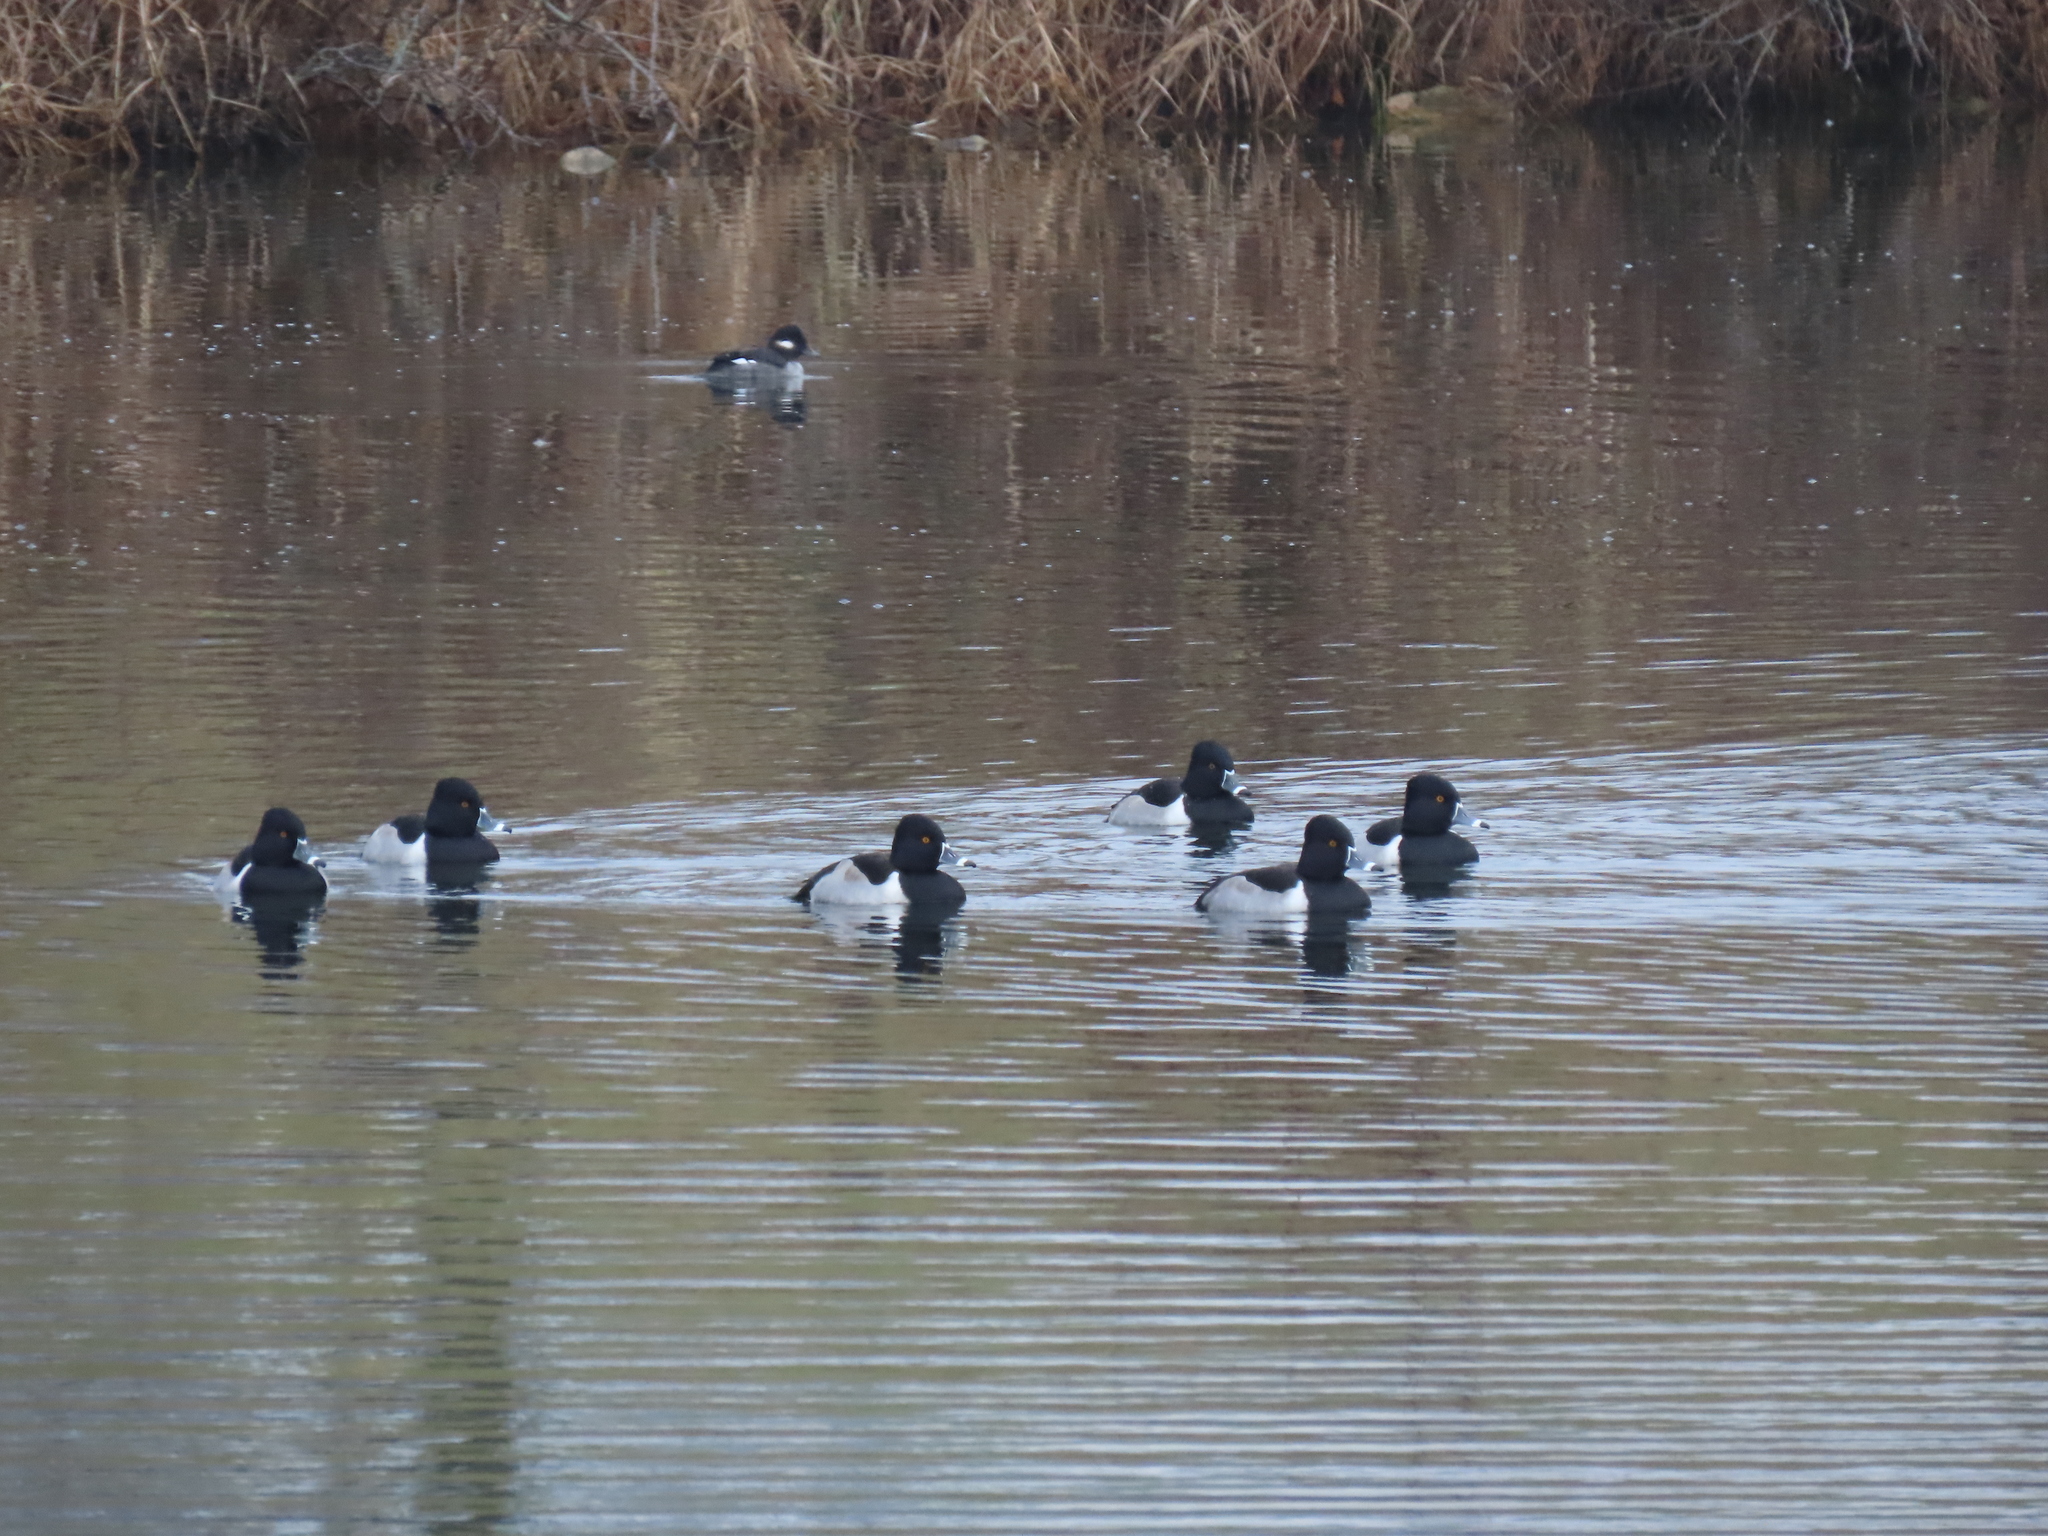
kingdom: Animalia
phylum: Chordata
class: Aves
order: Anseriformes
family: Anatidae
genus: Aythya
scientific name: Aythya collaris
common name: Ring-necked duck
